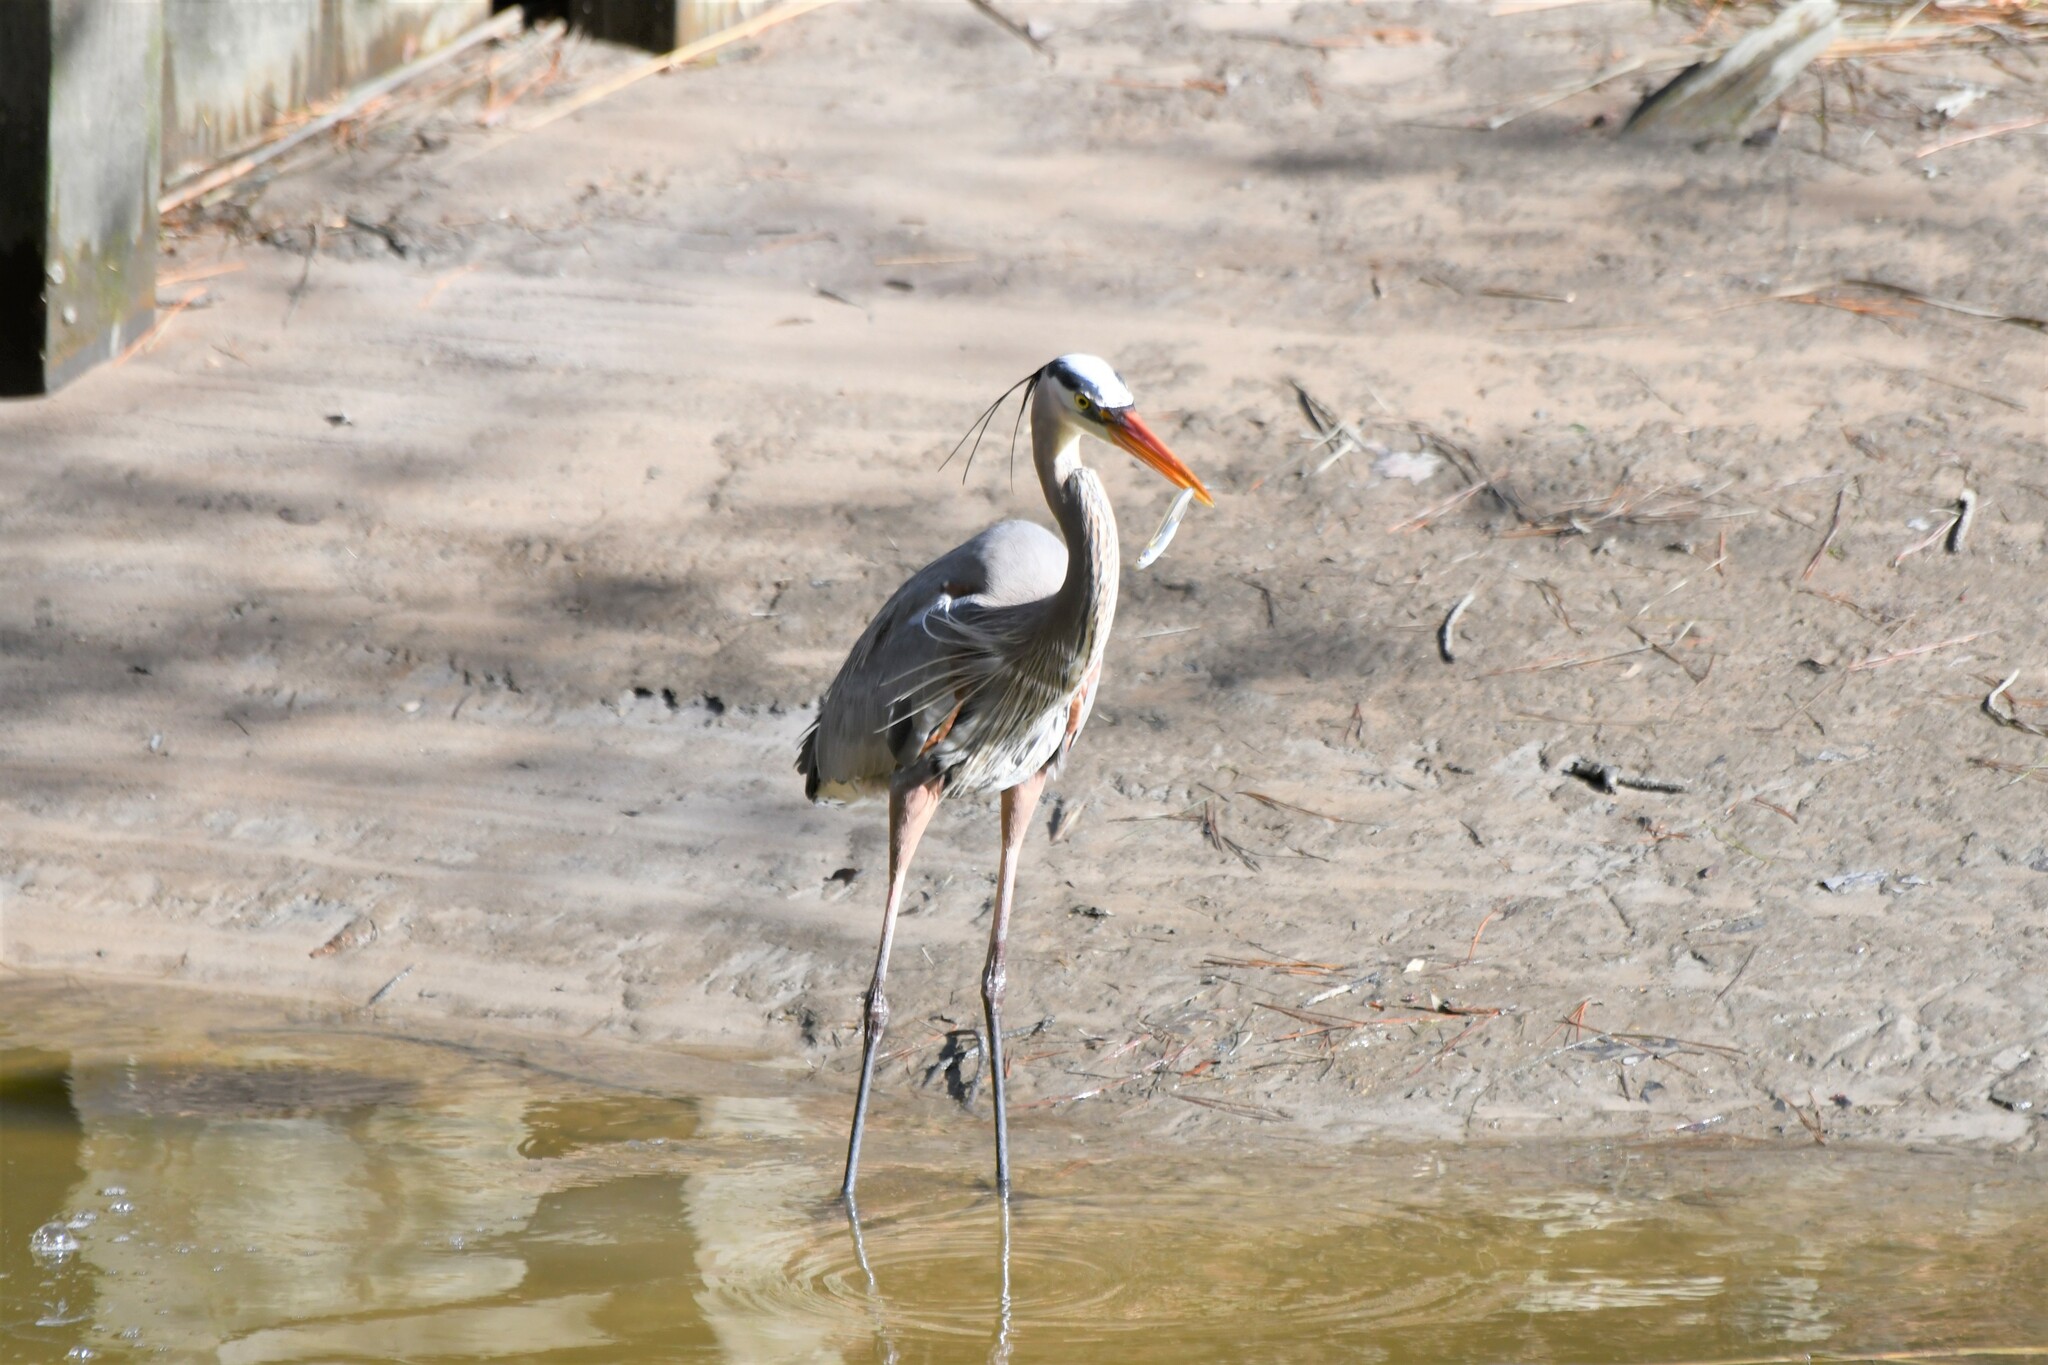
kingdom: Animalia
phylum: Chordata
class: Aves
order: Pelecaniformes
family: Ardeidae
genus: Ardea
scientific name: Ardea herodias
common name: Great blue heron
